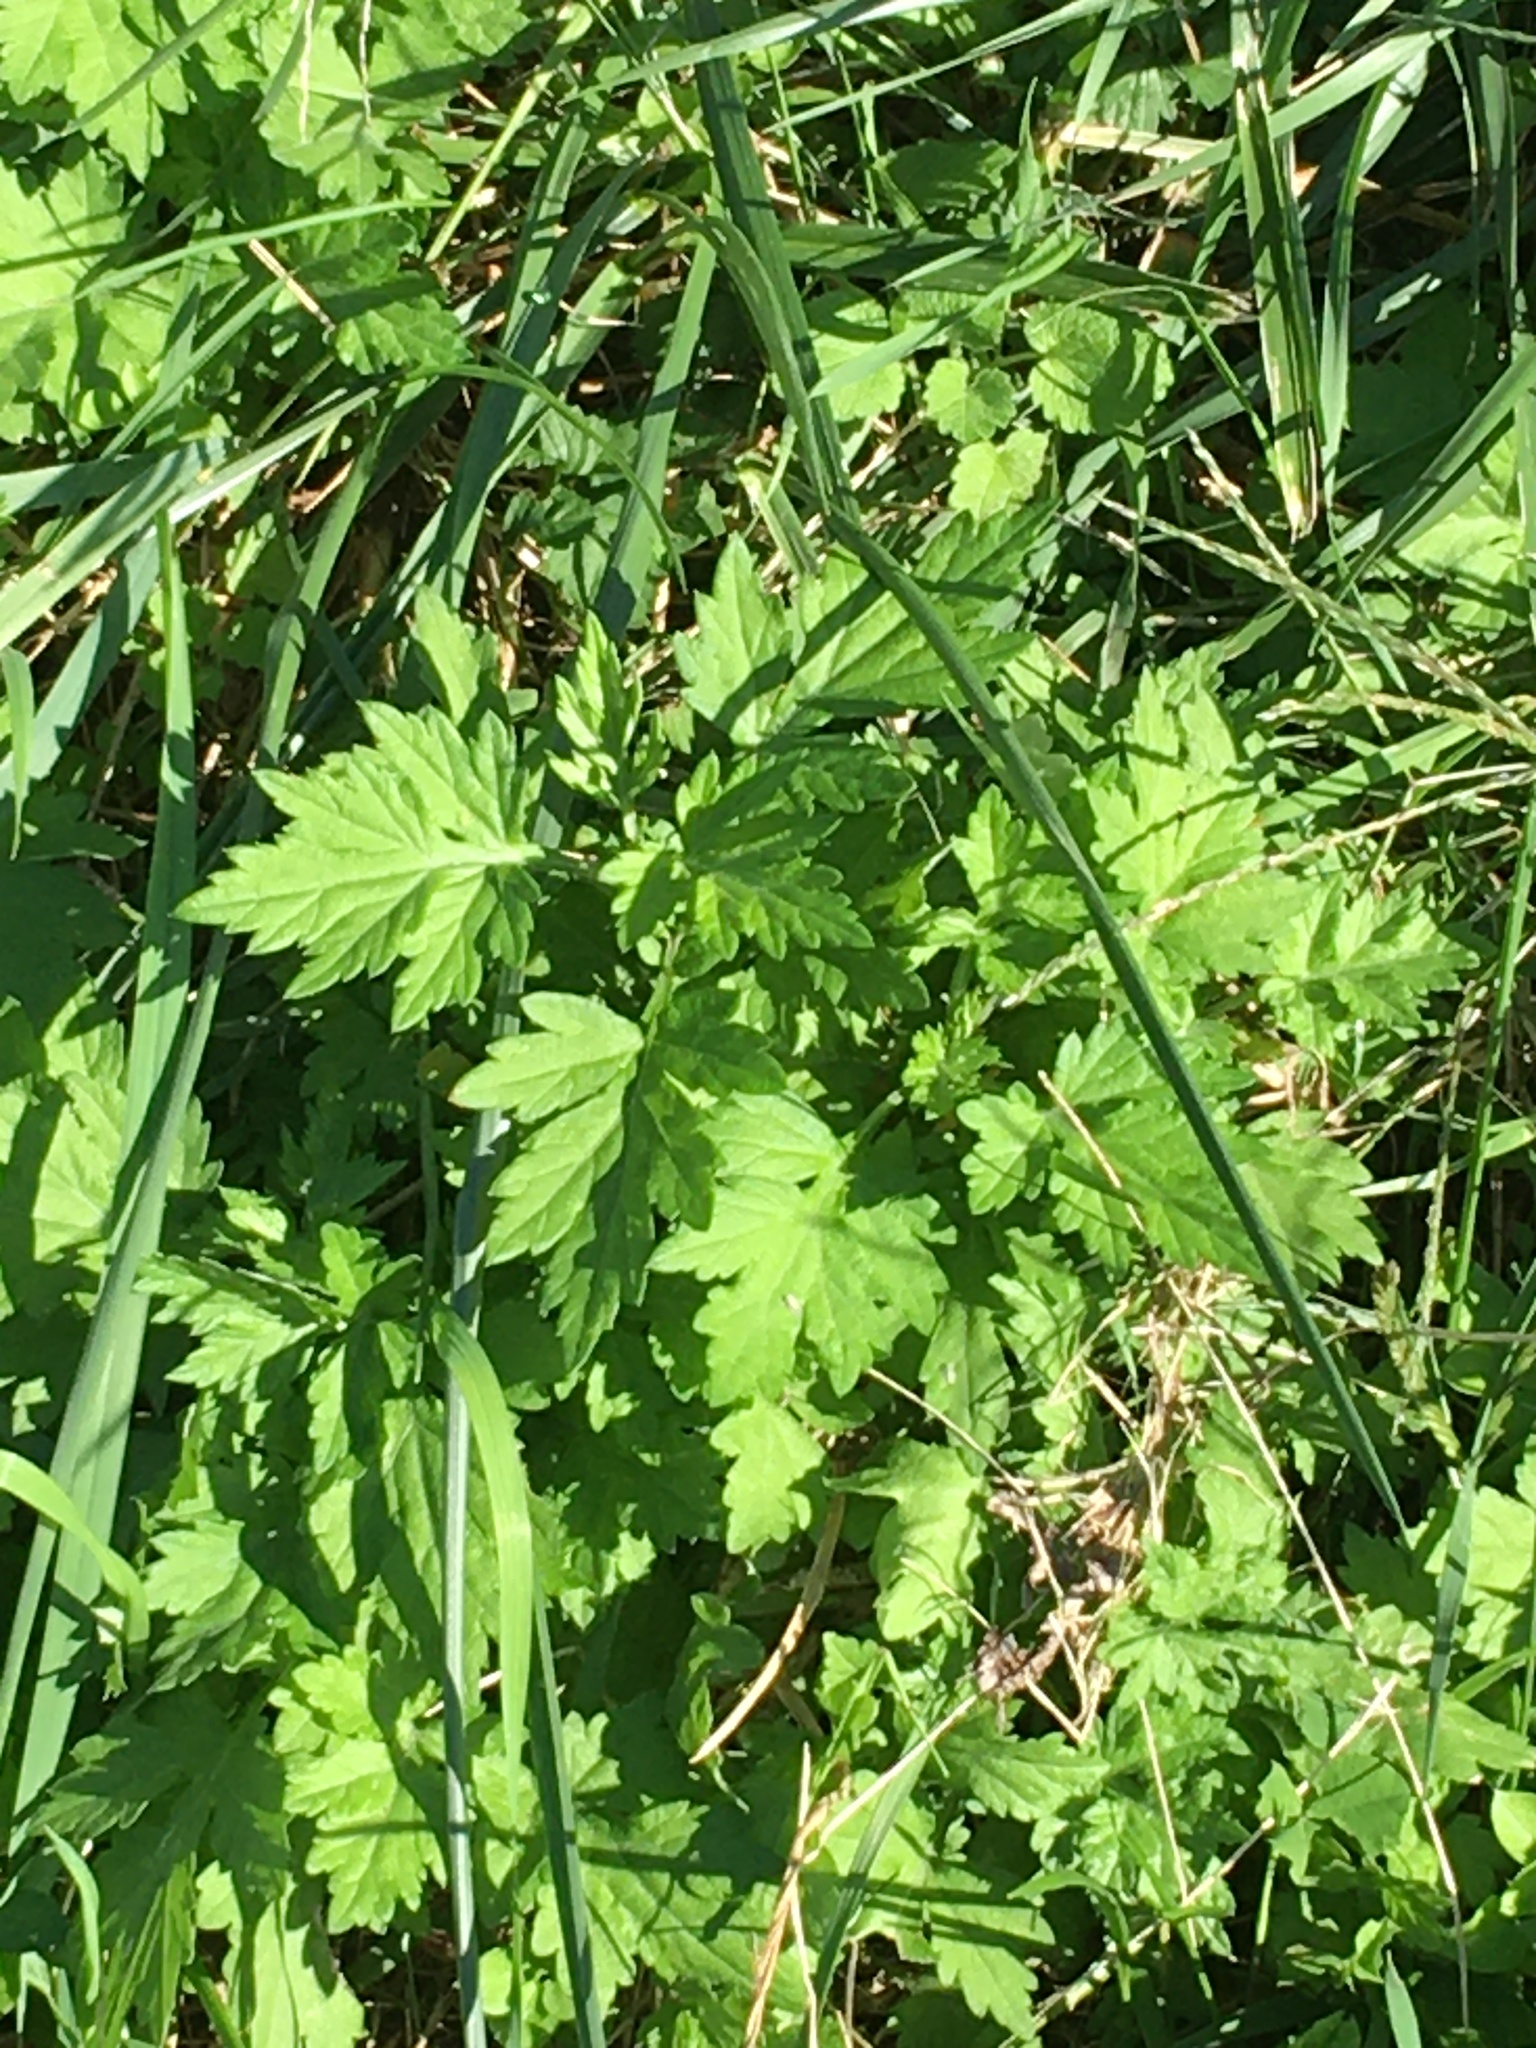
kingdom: Plantae
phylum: Tracheophyta
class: Magnoliopsida
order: Asterales
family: Asteraceae
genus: Artemisia
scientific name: Artemisia vulgaris
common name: Mugwort
